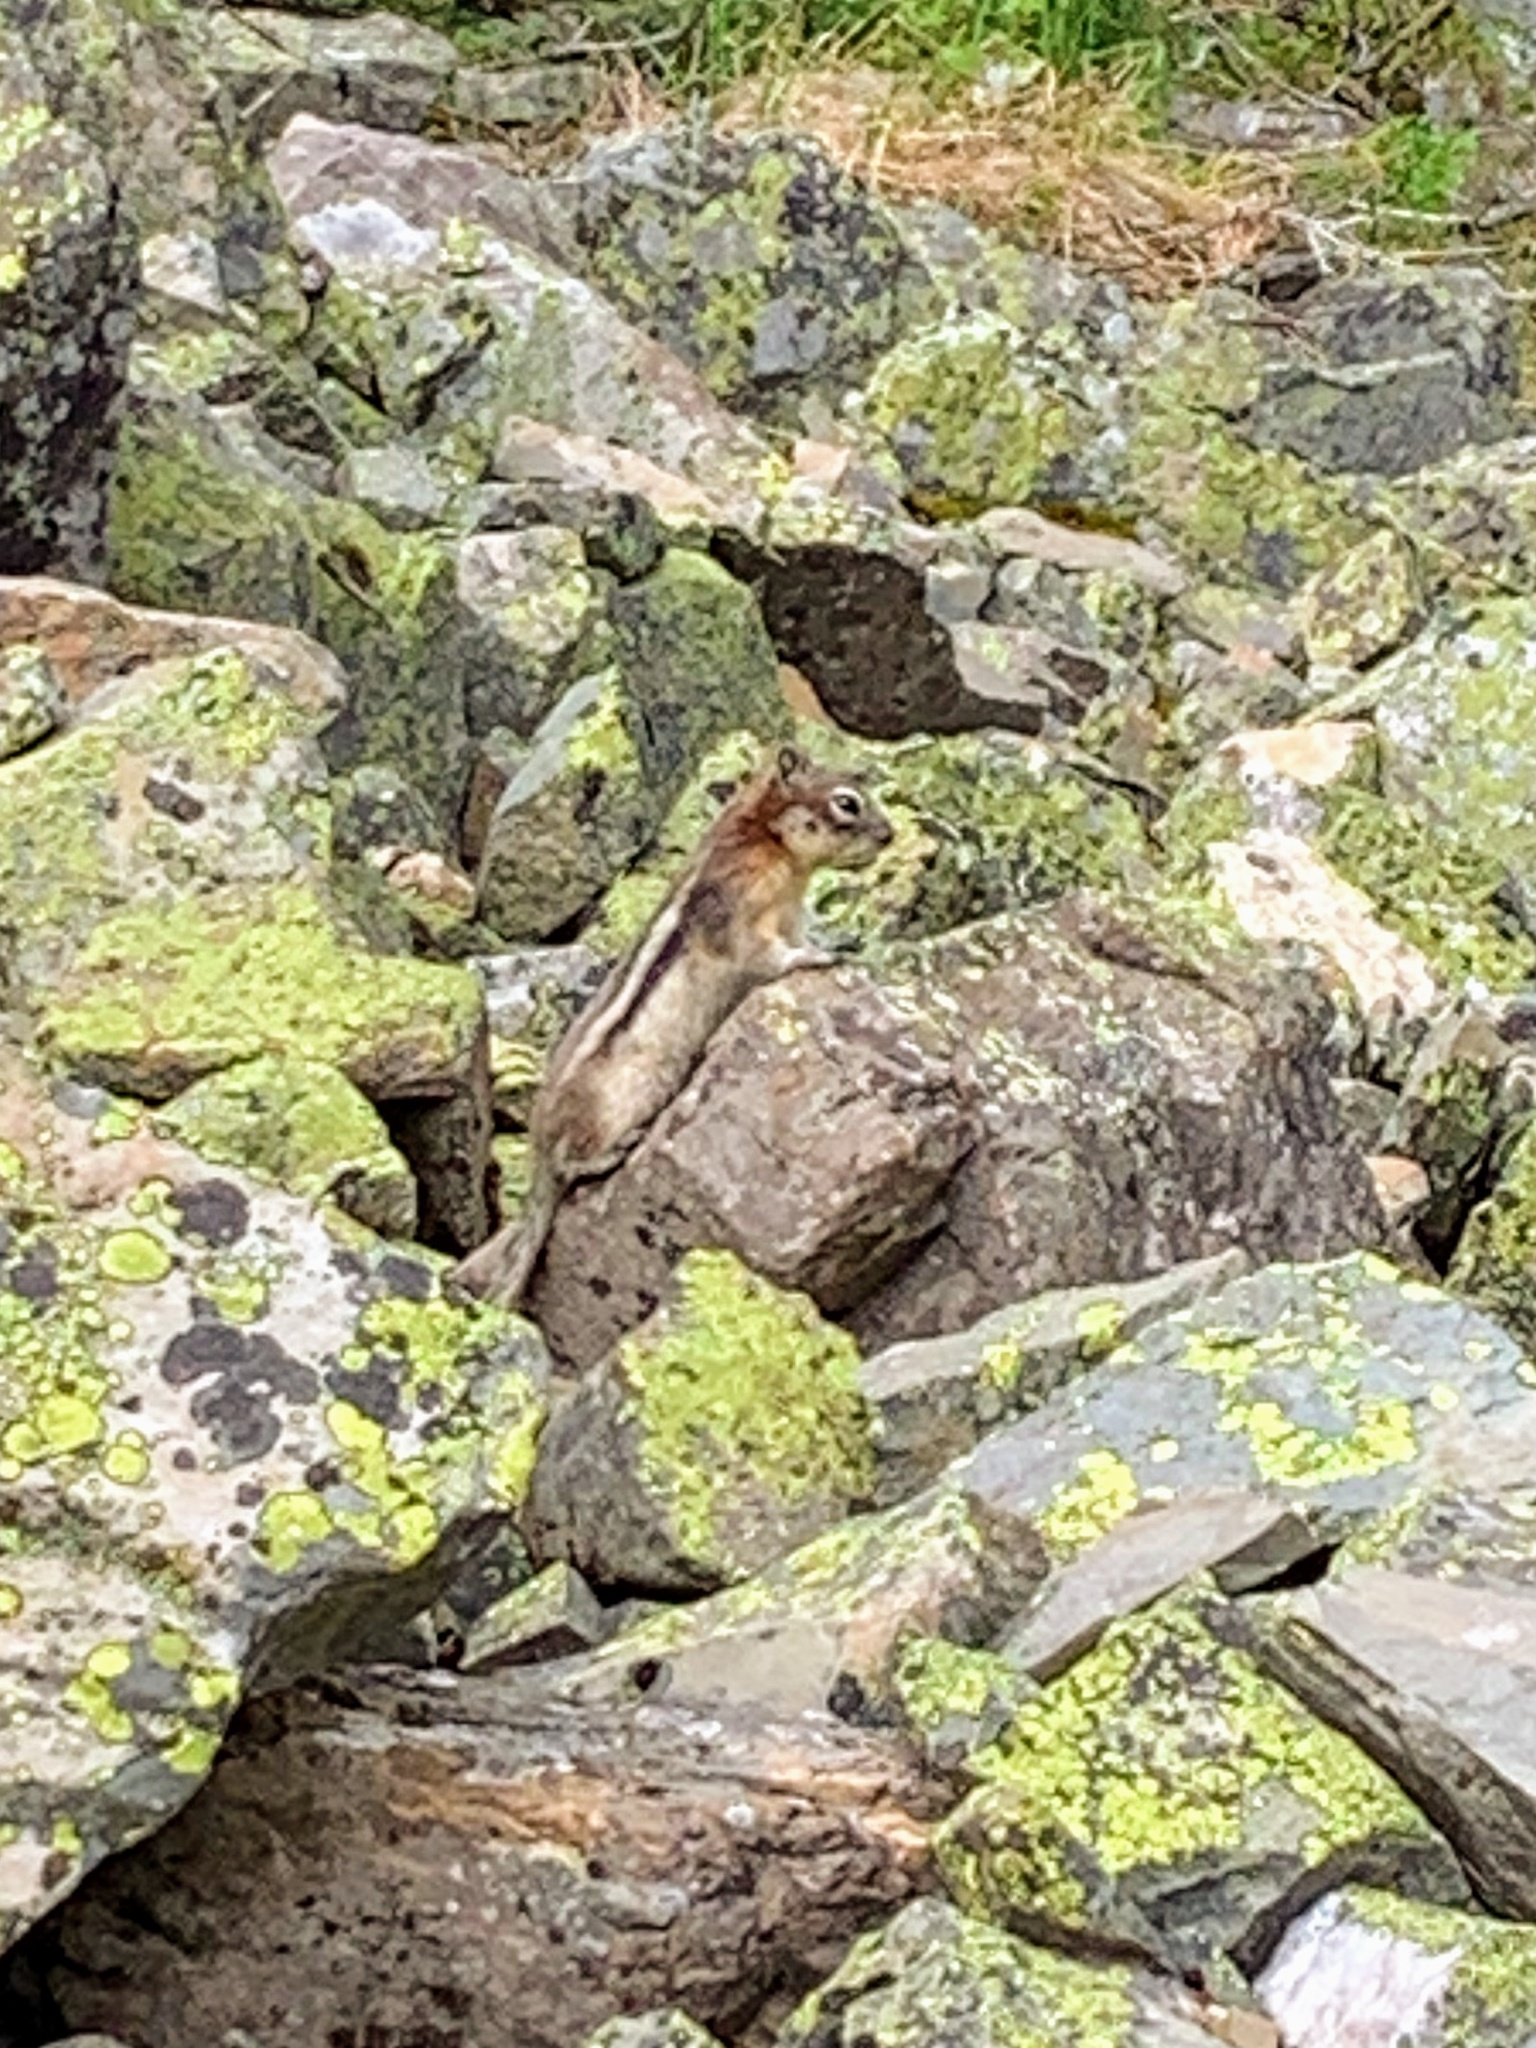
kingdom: Animalia
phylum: Chordata
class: Mammalia
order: Rodentia
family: Sciuridae
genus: Callospermophilus
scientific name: Callospermophilus lateralis
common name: Golden-mantled ground squirrel
